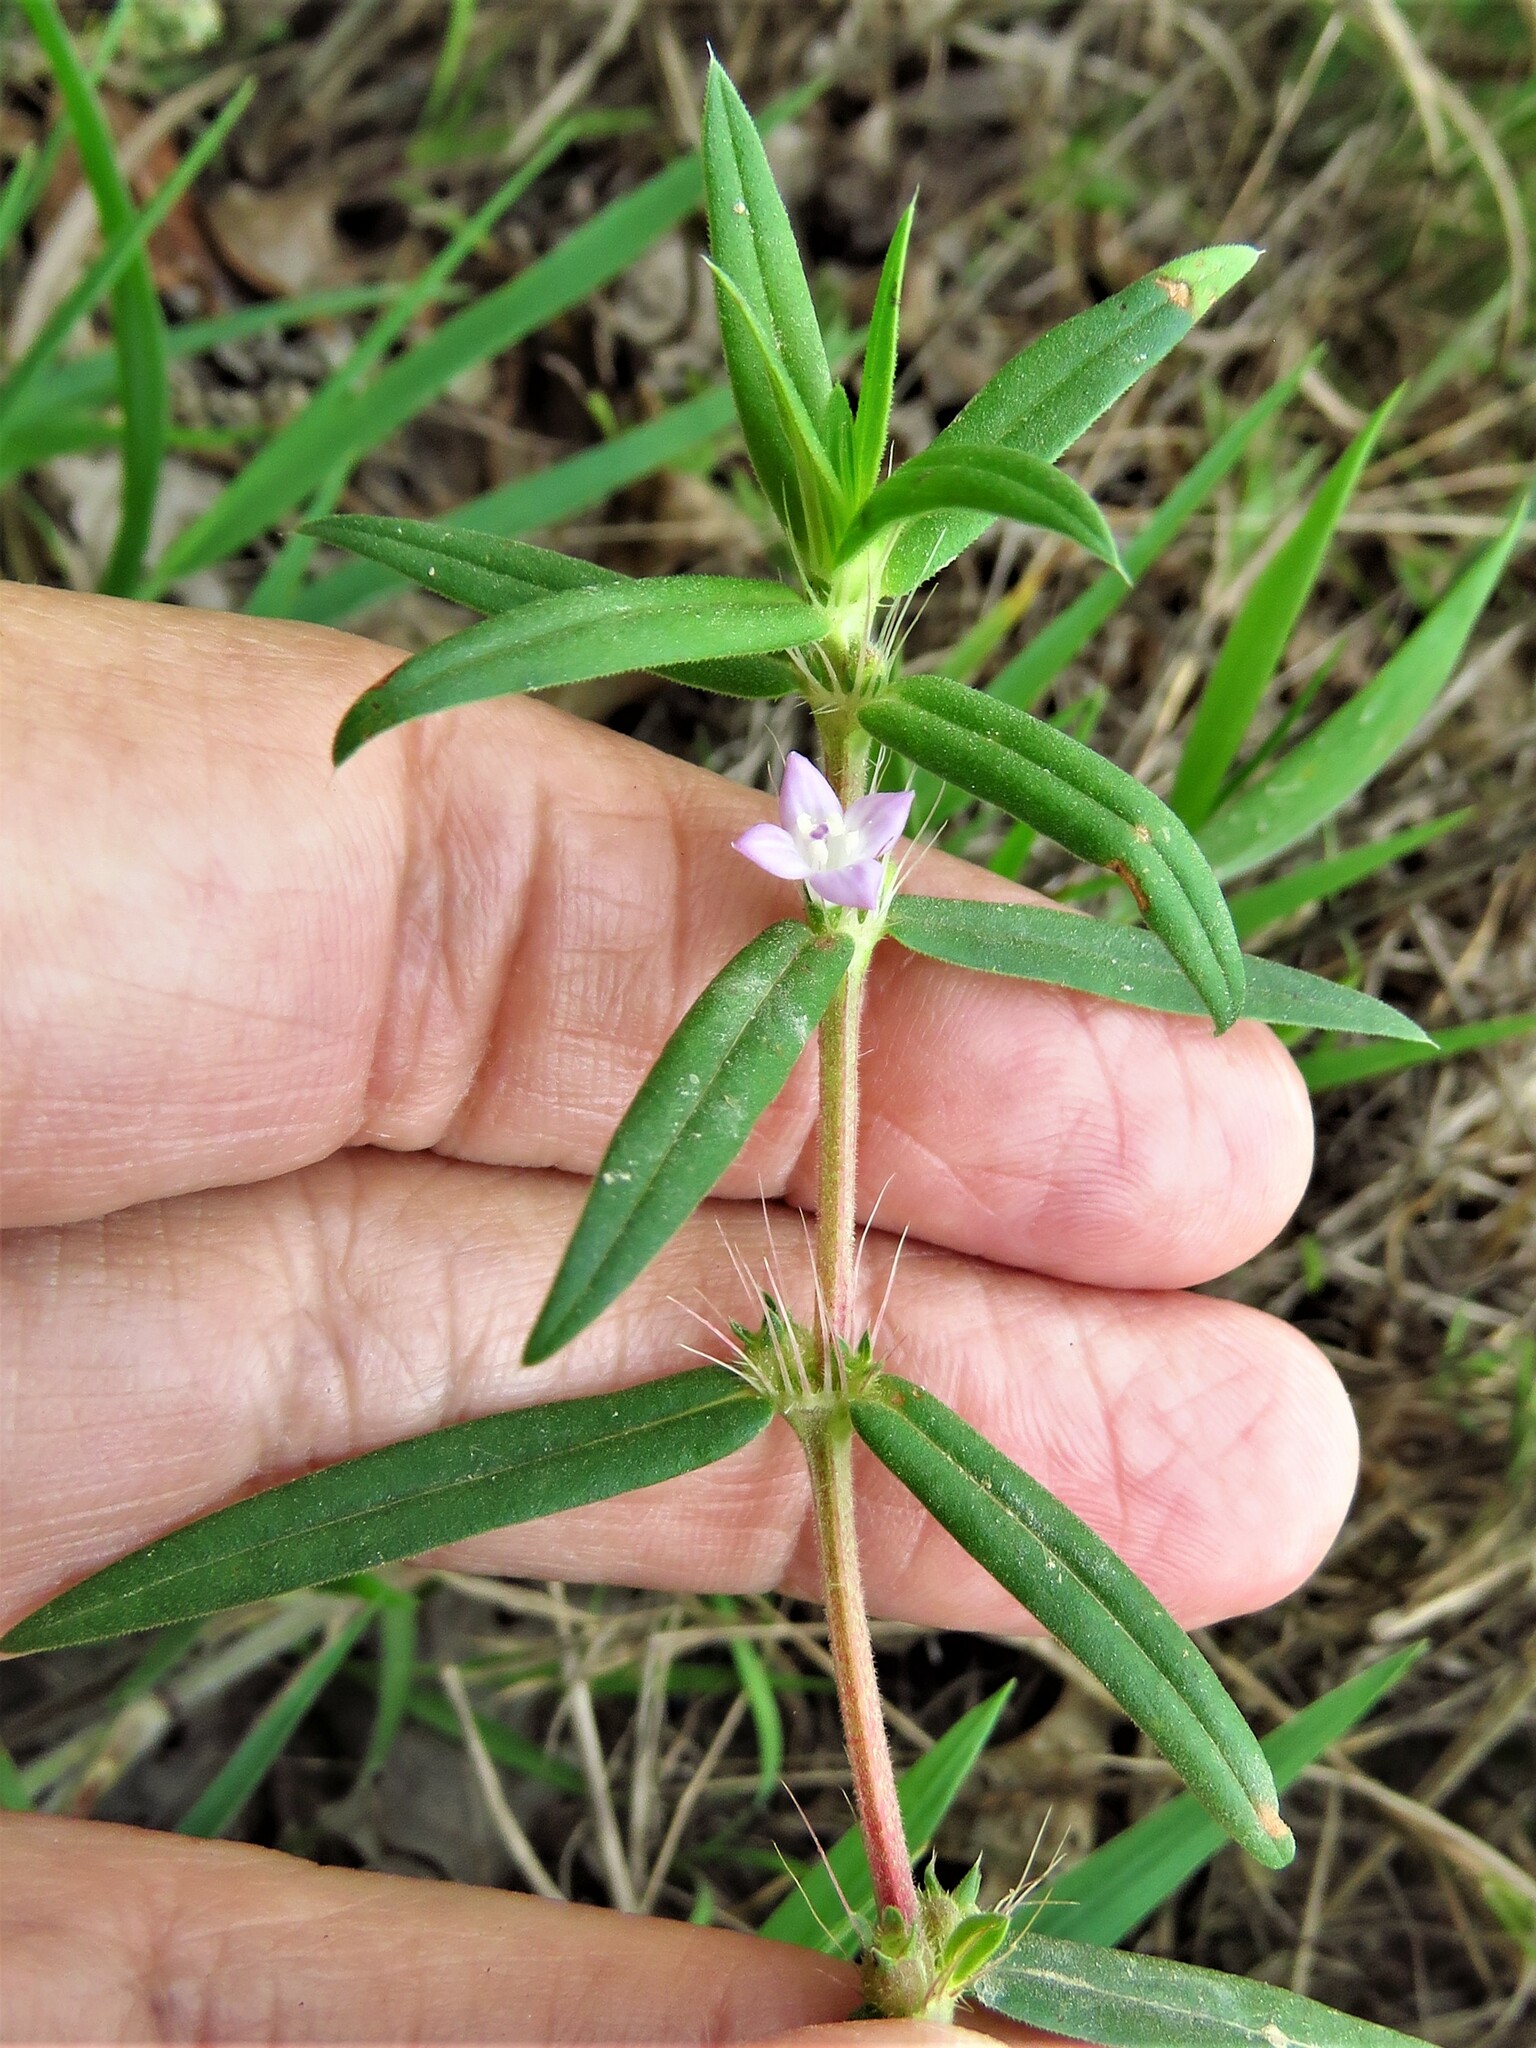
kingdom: Plantae
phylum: Tracheophyta
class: Magnoliopsida
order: Gentianales
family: Rubiaceae
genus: Hexasepalum
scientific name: Hexasepalum teres
